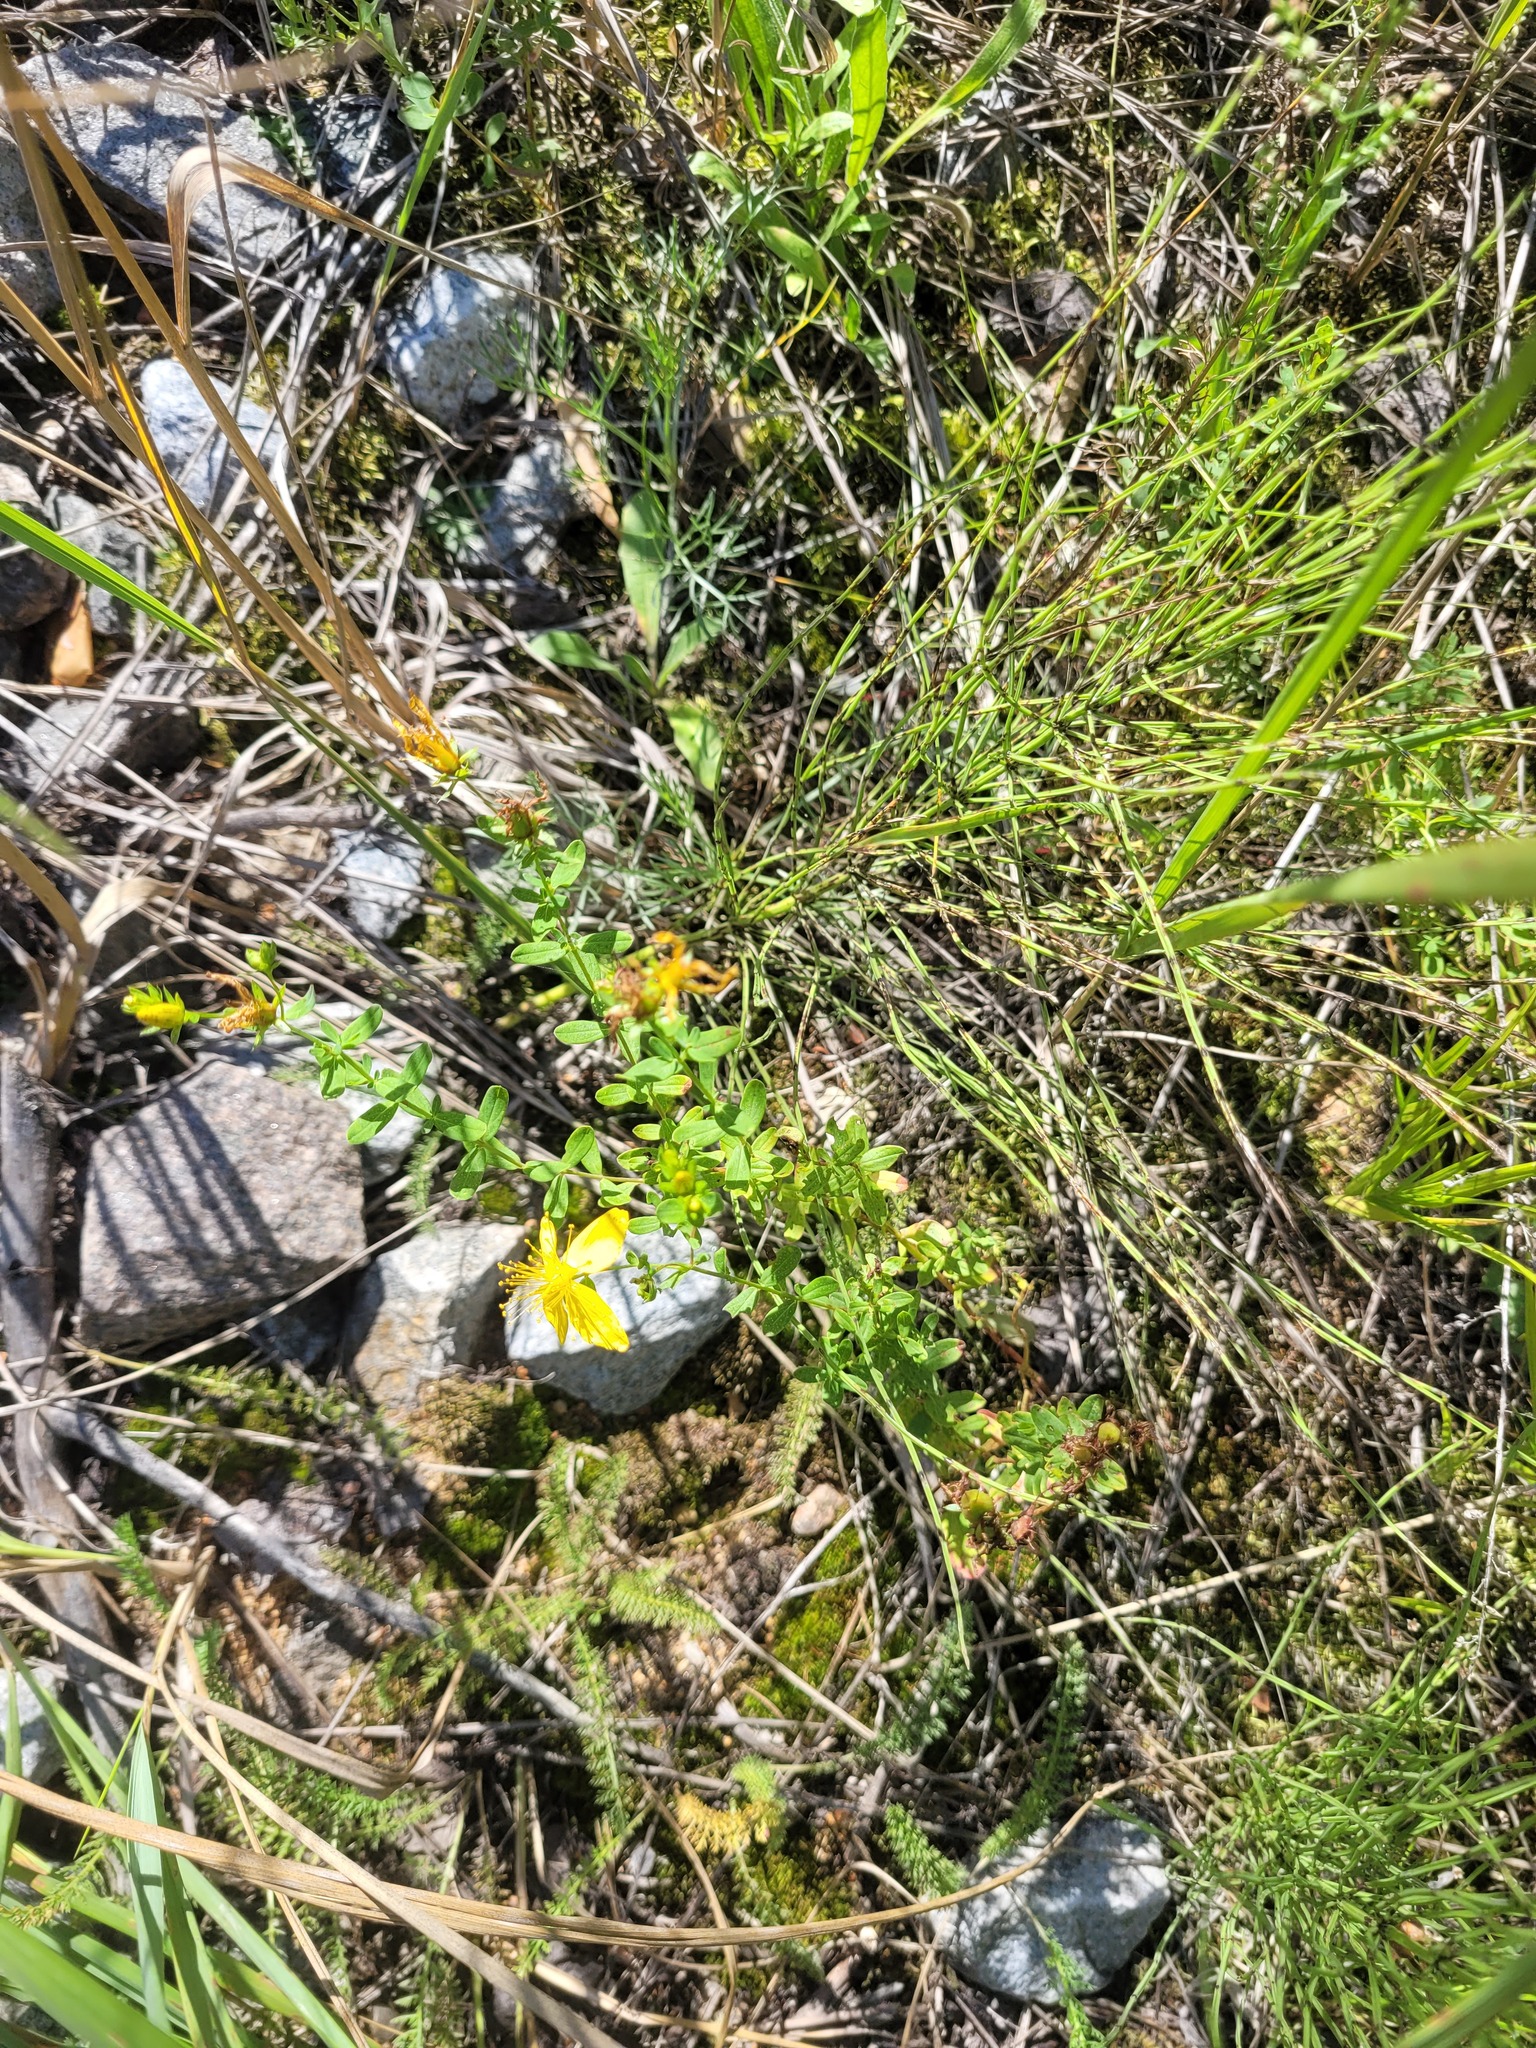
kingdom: Plantae
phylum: Tracheophyta
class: Magnoliopsida
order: Malpighiales
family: Hypericaceae
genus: Hypericum
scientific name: Hypericum perforatum
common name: Common st. johnswort
